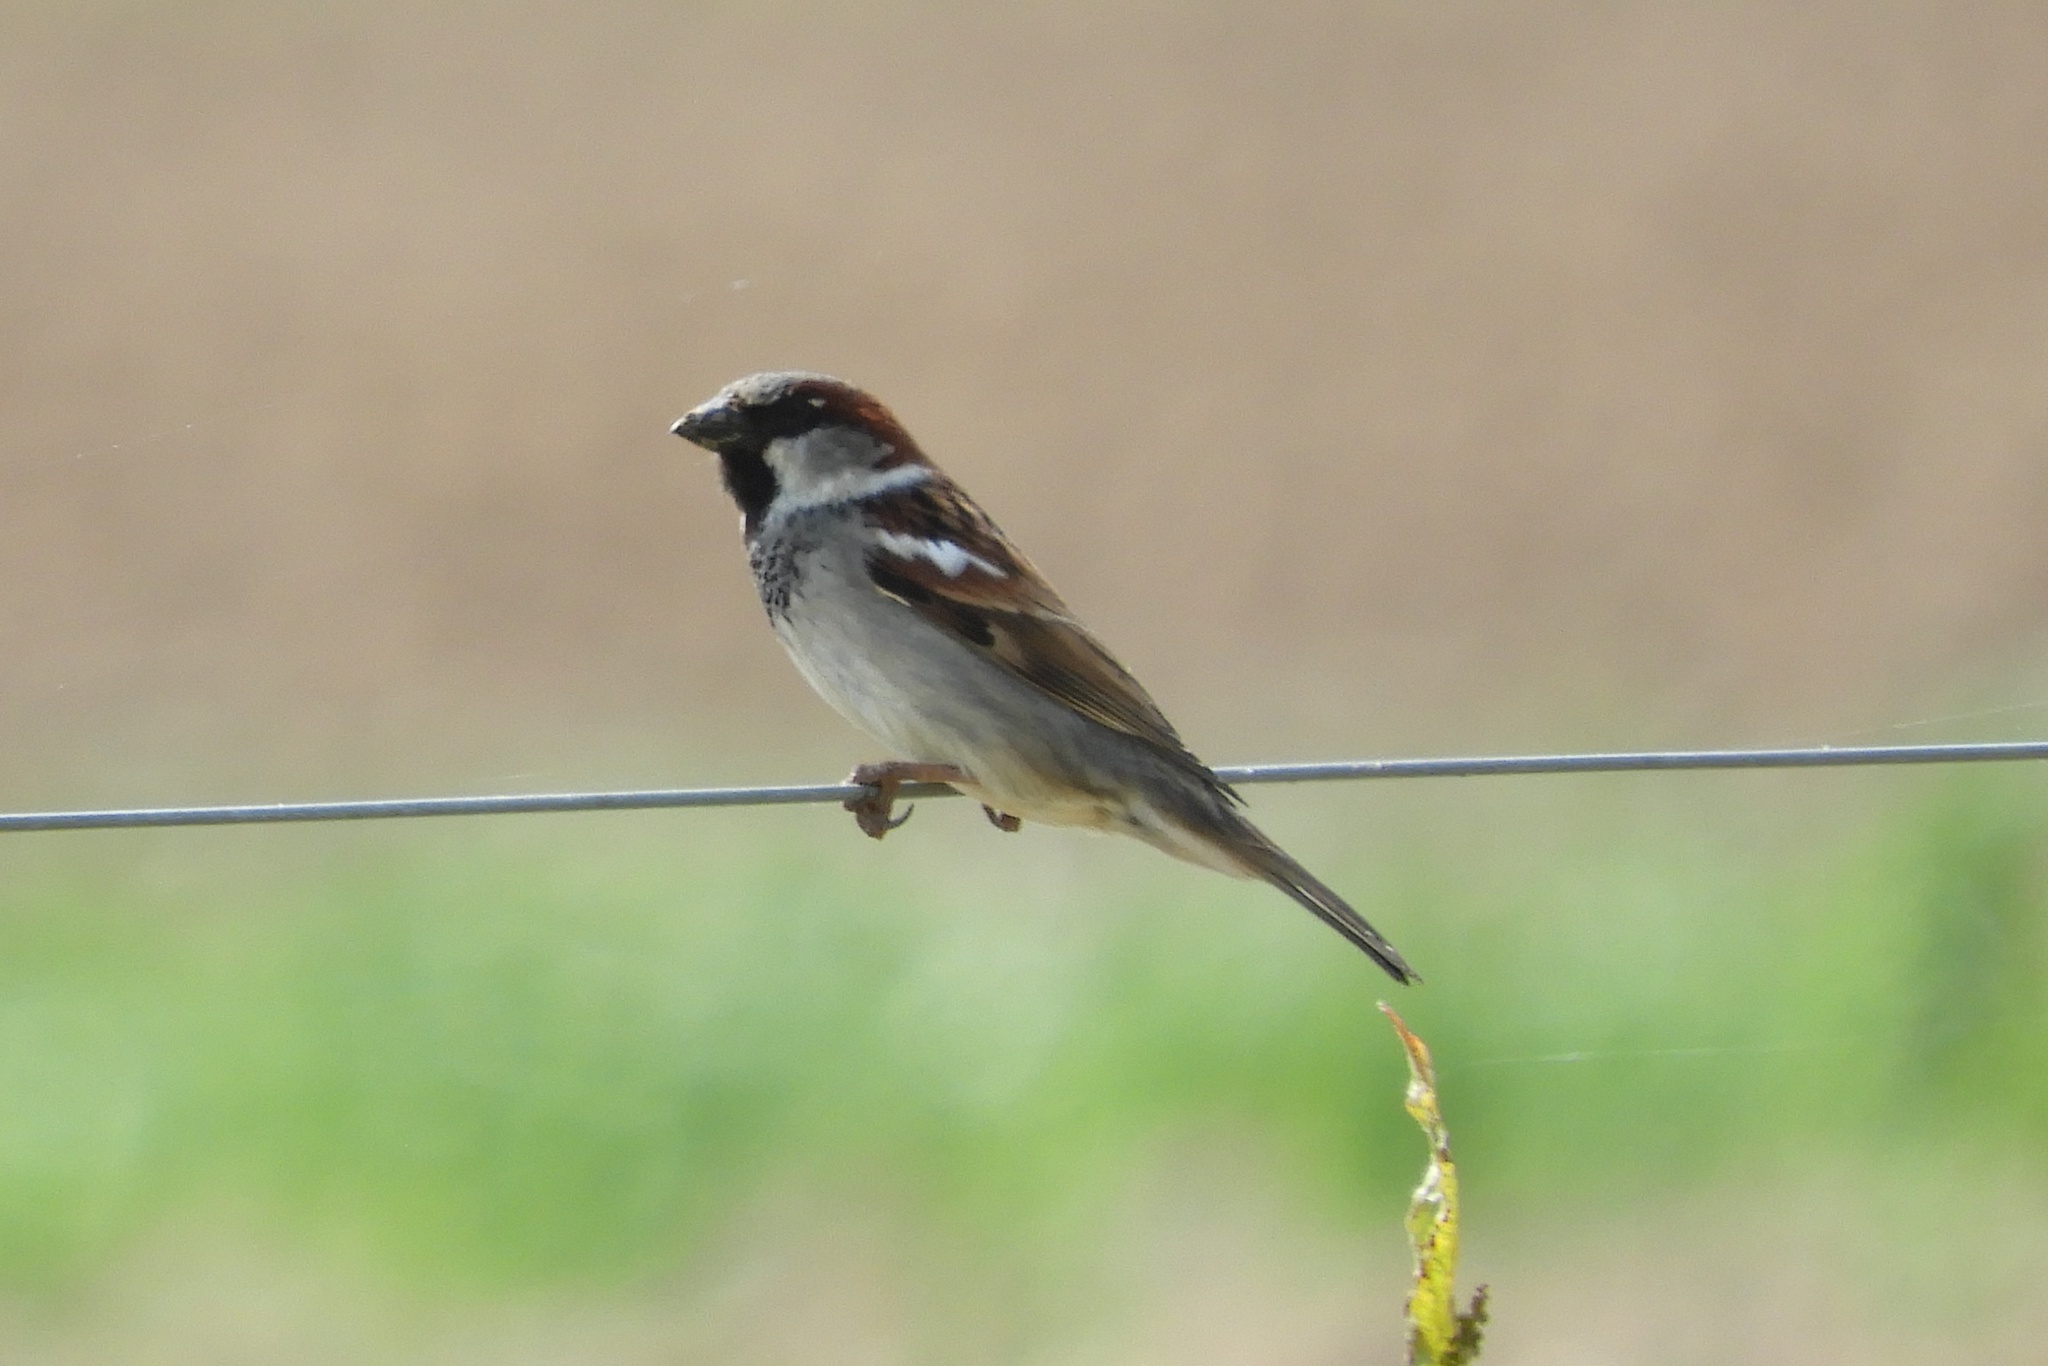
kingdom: Animalia
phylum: Chordata
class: Aves
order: Passeriformes
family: Passeridae
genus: Passer
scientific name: Passer domesticus
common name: House sparrow
